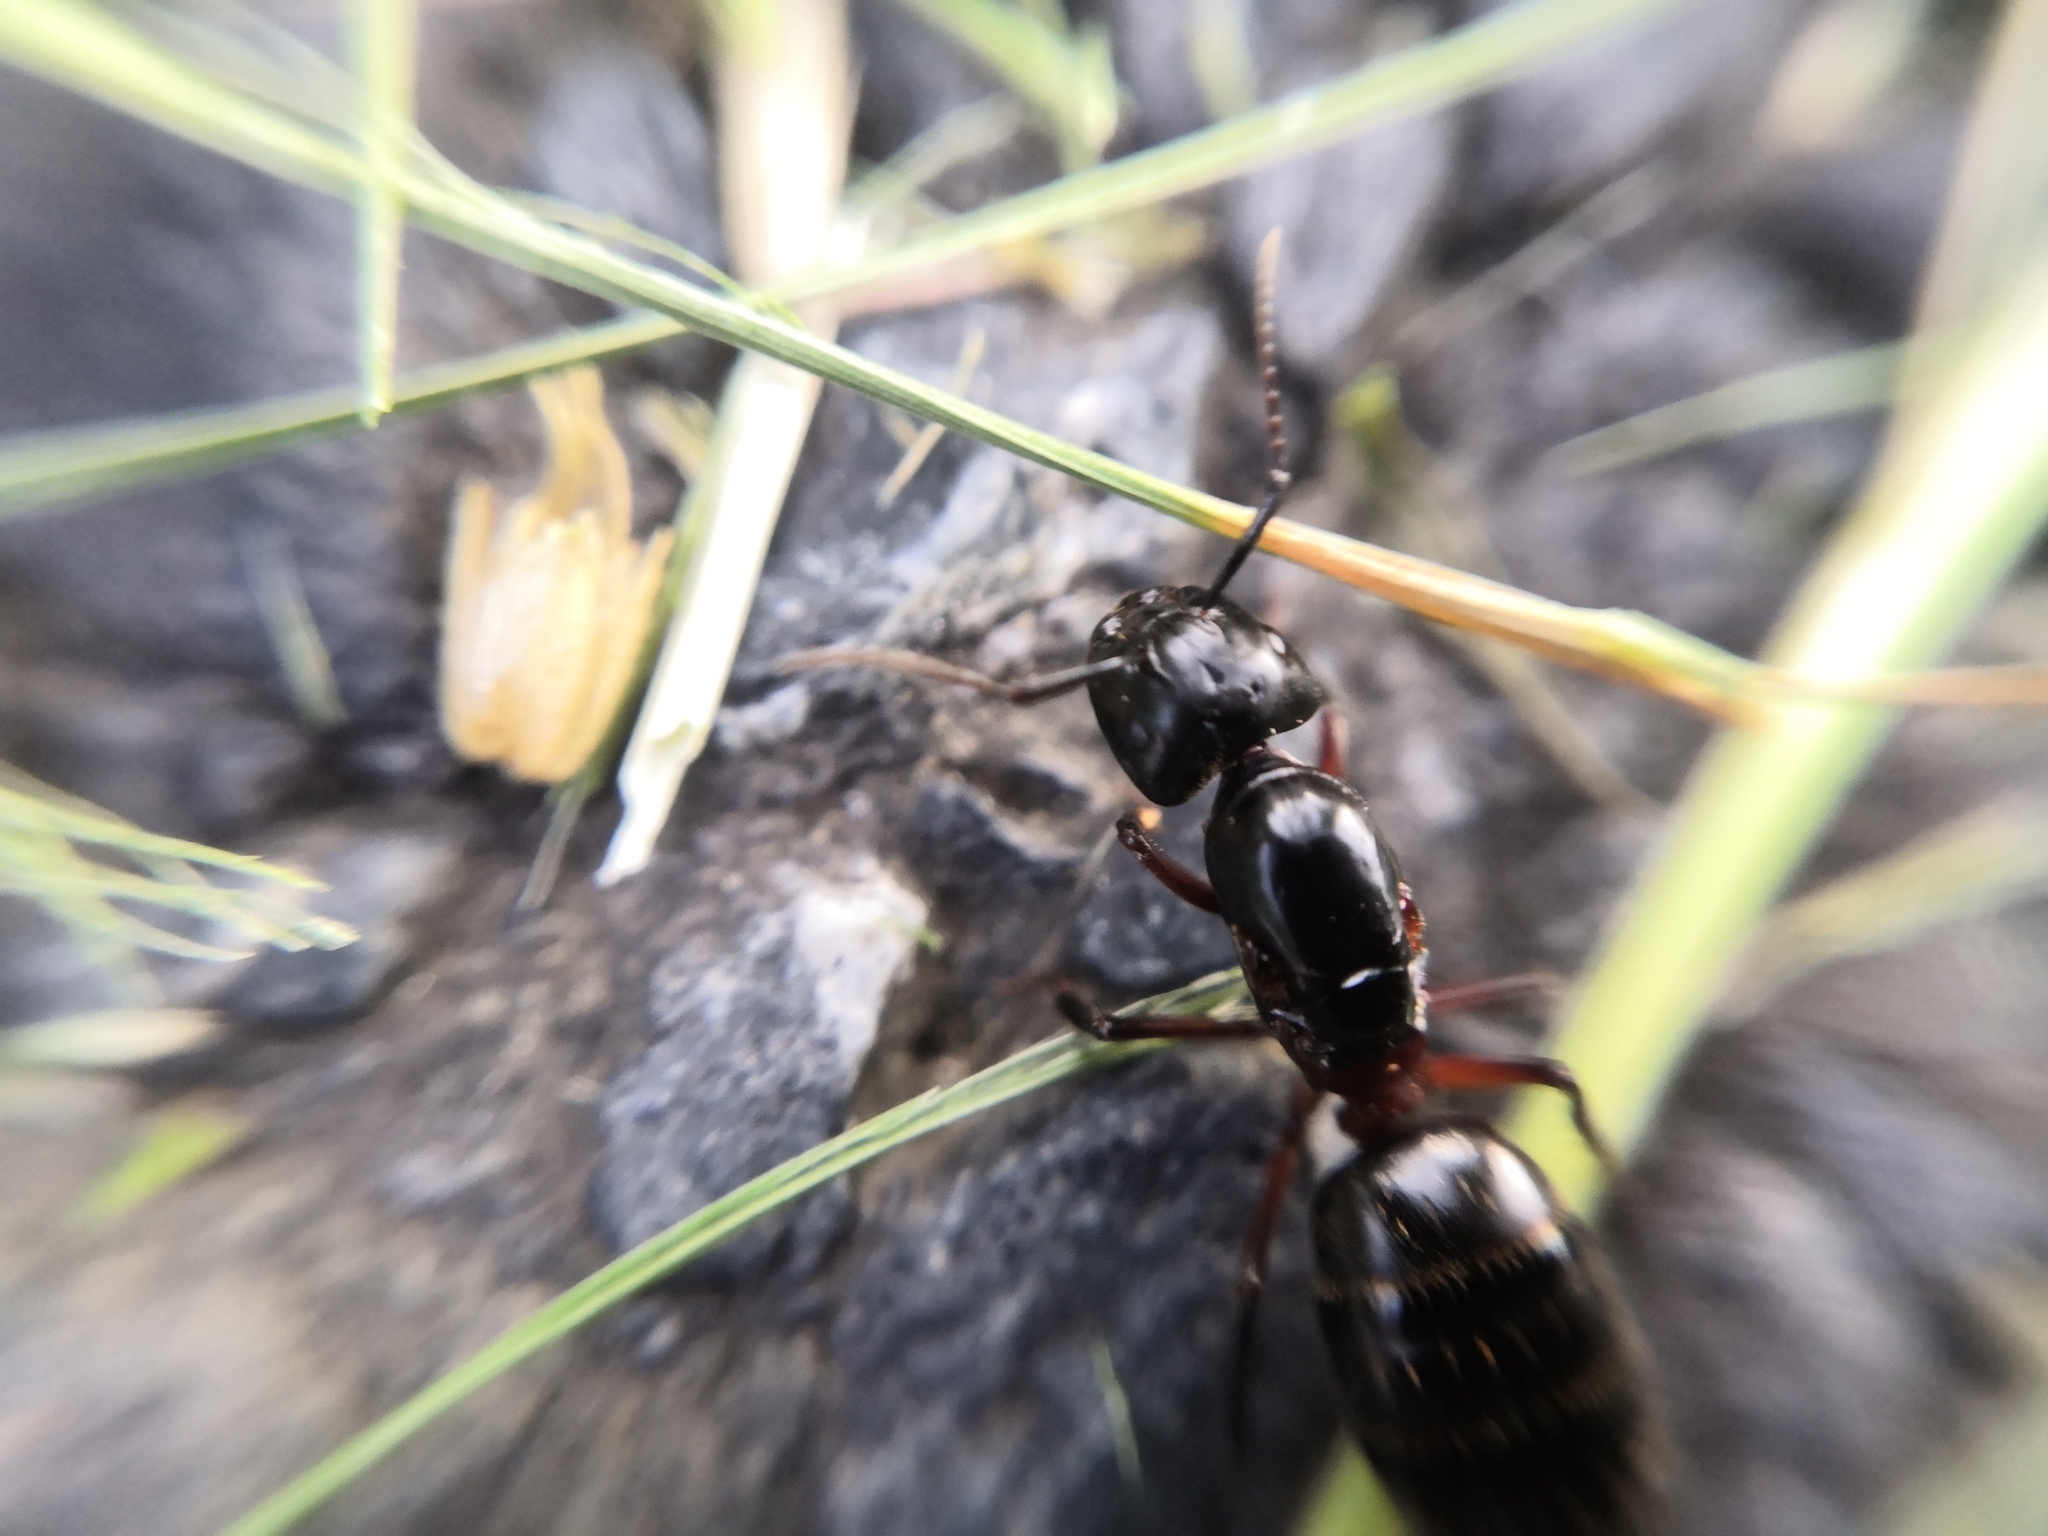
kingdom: Animalia
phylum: Arthropoda
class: Insecta
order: Hymenoptera
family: Formicidae
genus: Camponotus
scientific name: Camponotus herculeanus
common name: Hercules ant
